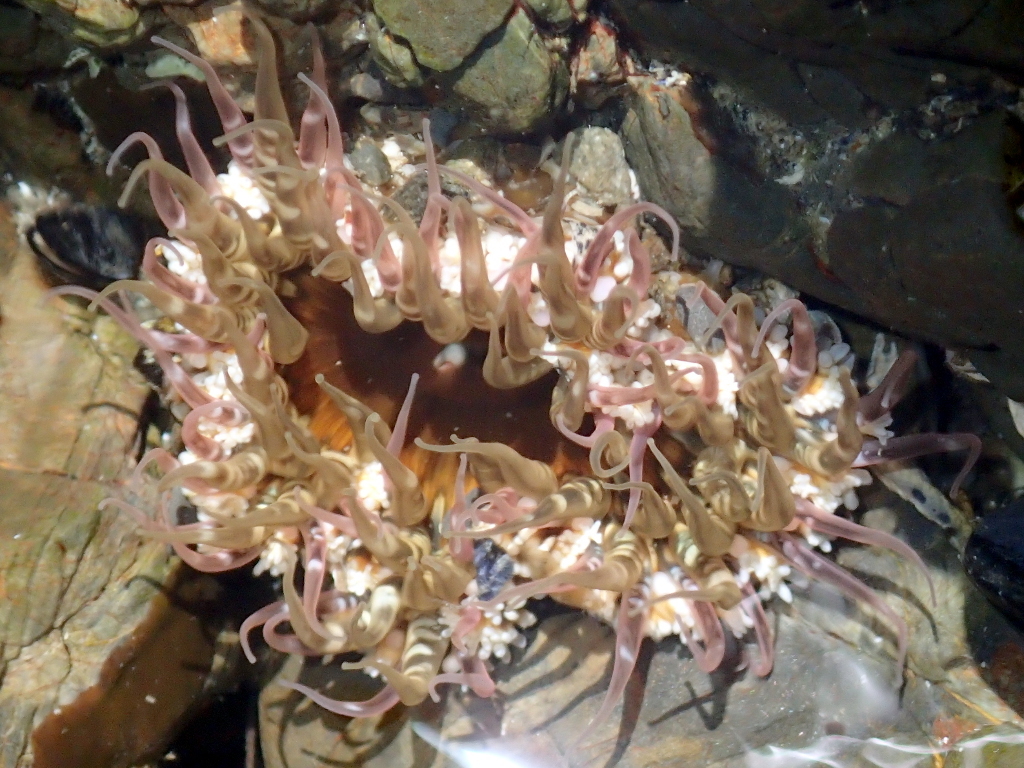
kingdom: Animalia
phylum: Cnidaria
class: Anthozoa
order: Actiniaria
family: Actiniidae
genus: Oulactis
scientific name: Oulactis muscosa
